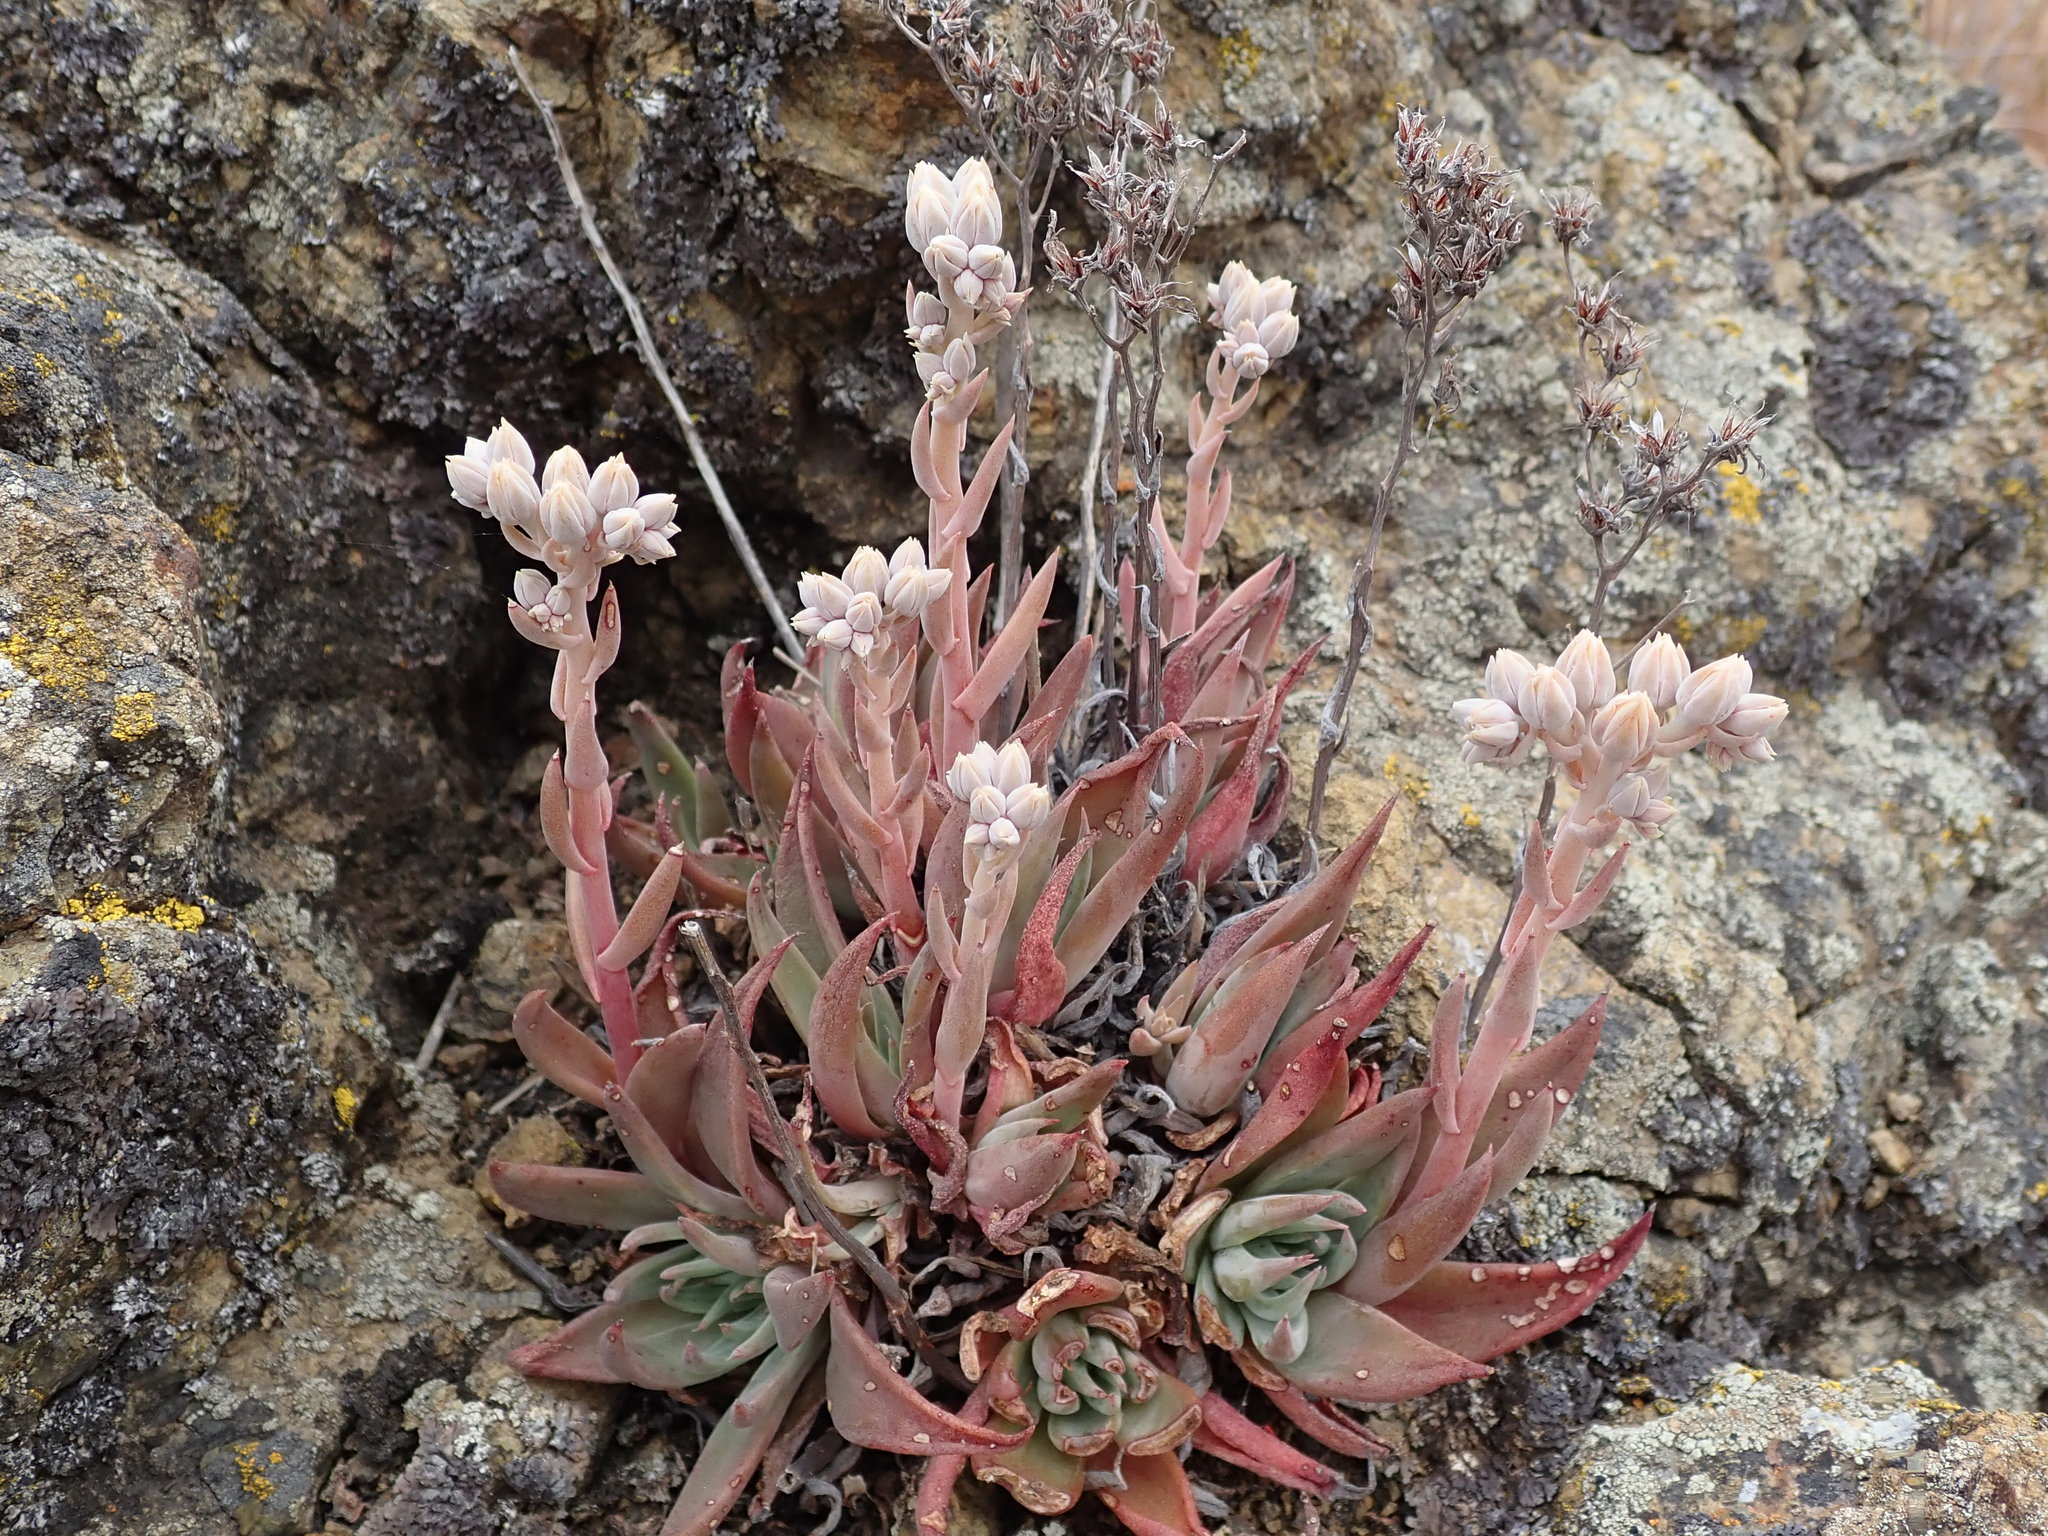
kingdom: Plantae
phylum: Tracheophyta
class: Magnoliopsida
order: Saxifragales
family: Crassulaceae
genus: Dudleya
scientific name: Dudleya abramsii
